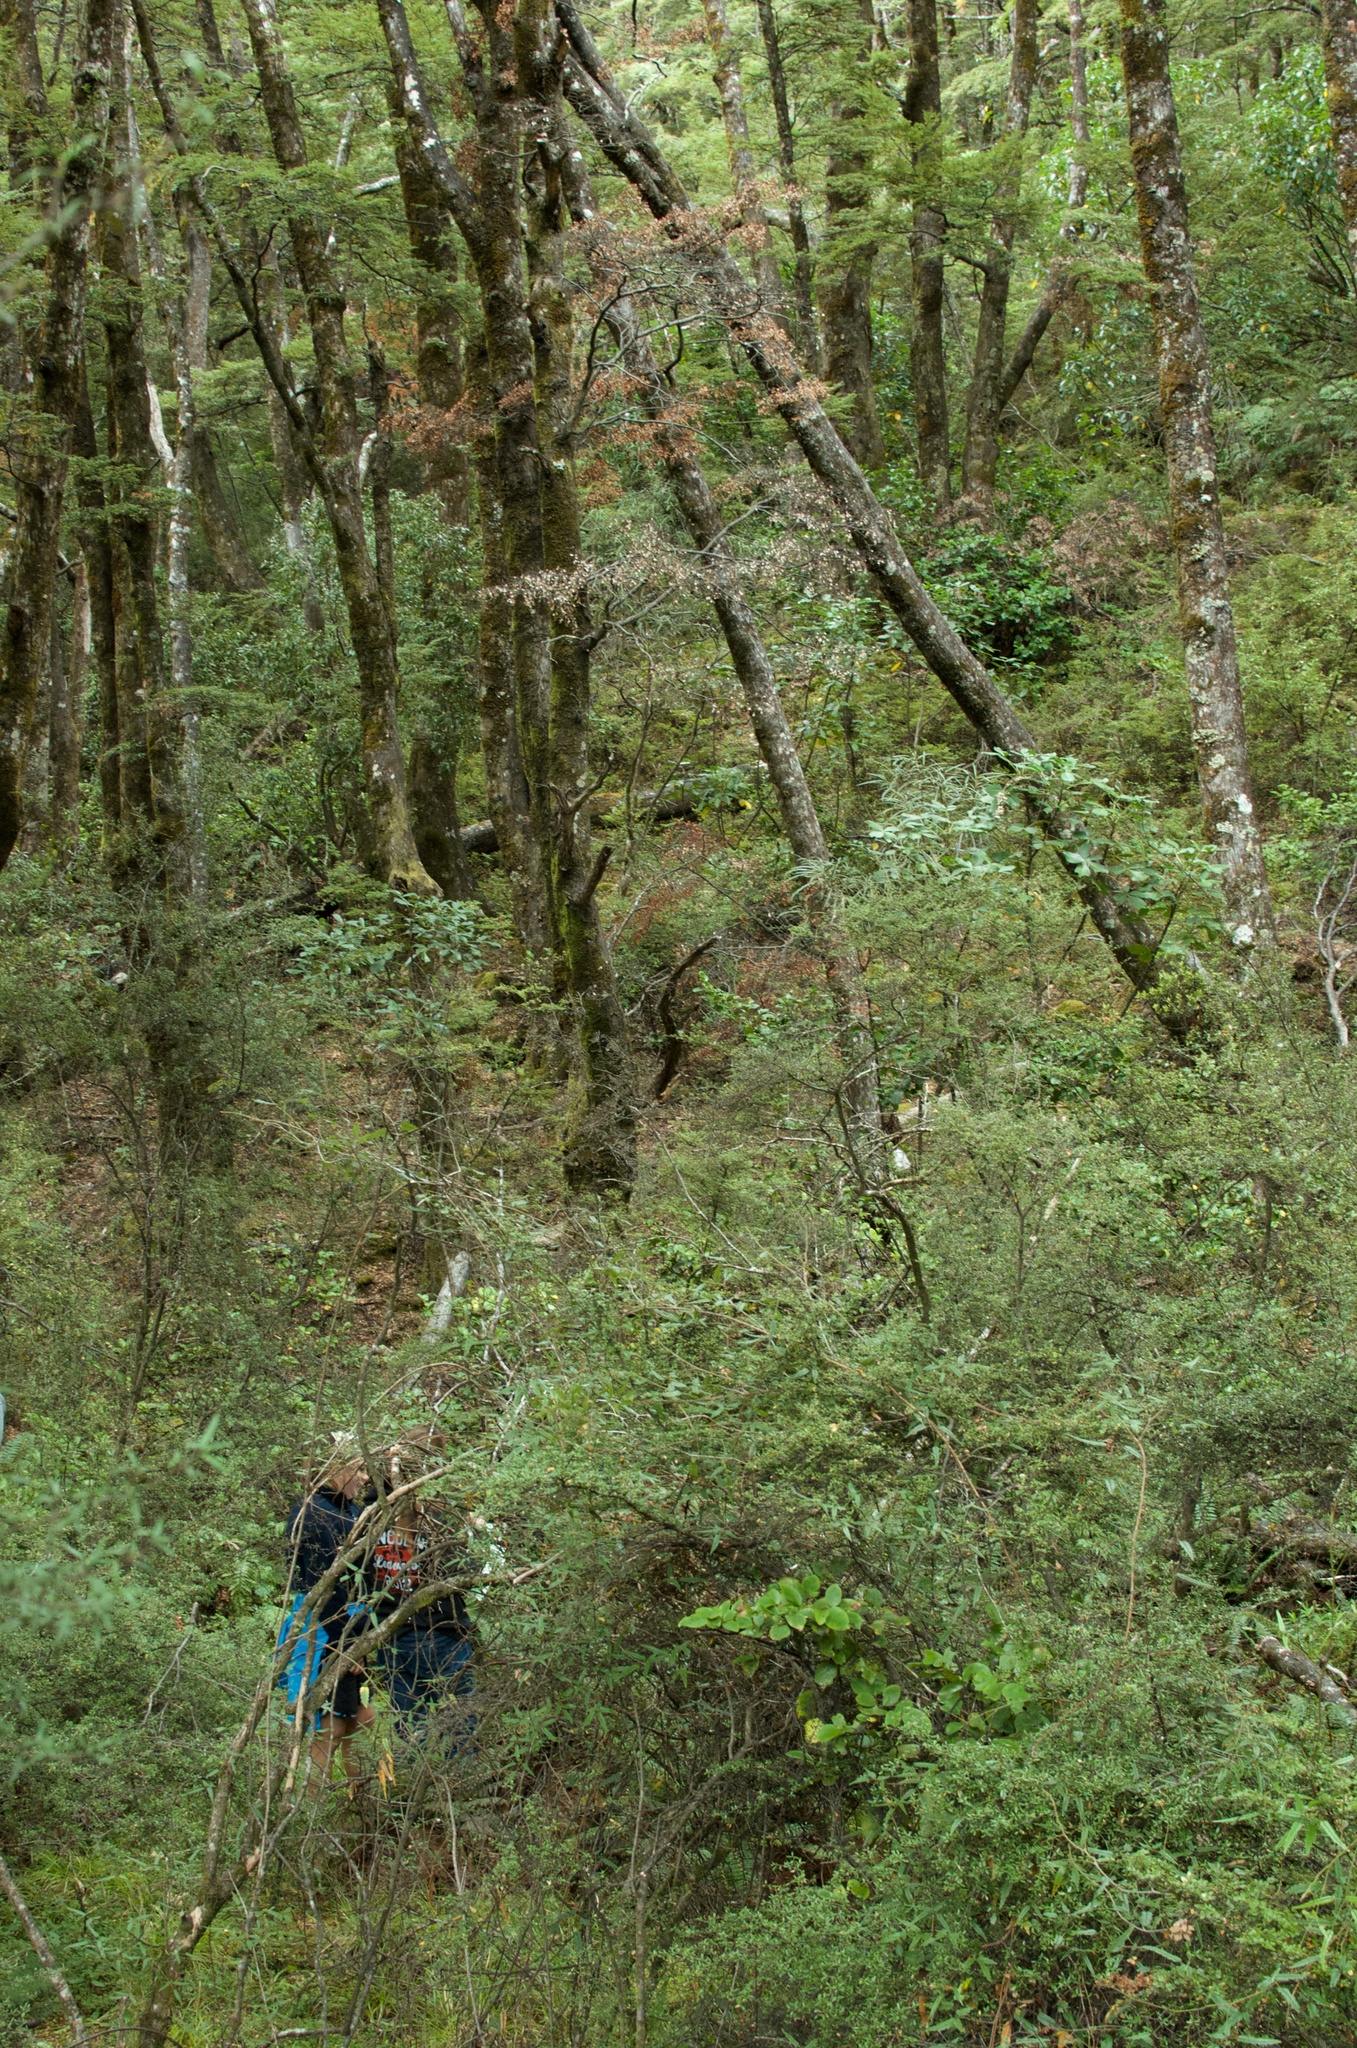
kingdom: Plantae
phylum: Tracheophyta
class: Magnoliopsida
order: Fagales
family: Nothofagaceae
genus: Nothofagus
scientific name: Nothofagus cliffortioides
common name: Mountain beech
